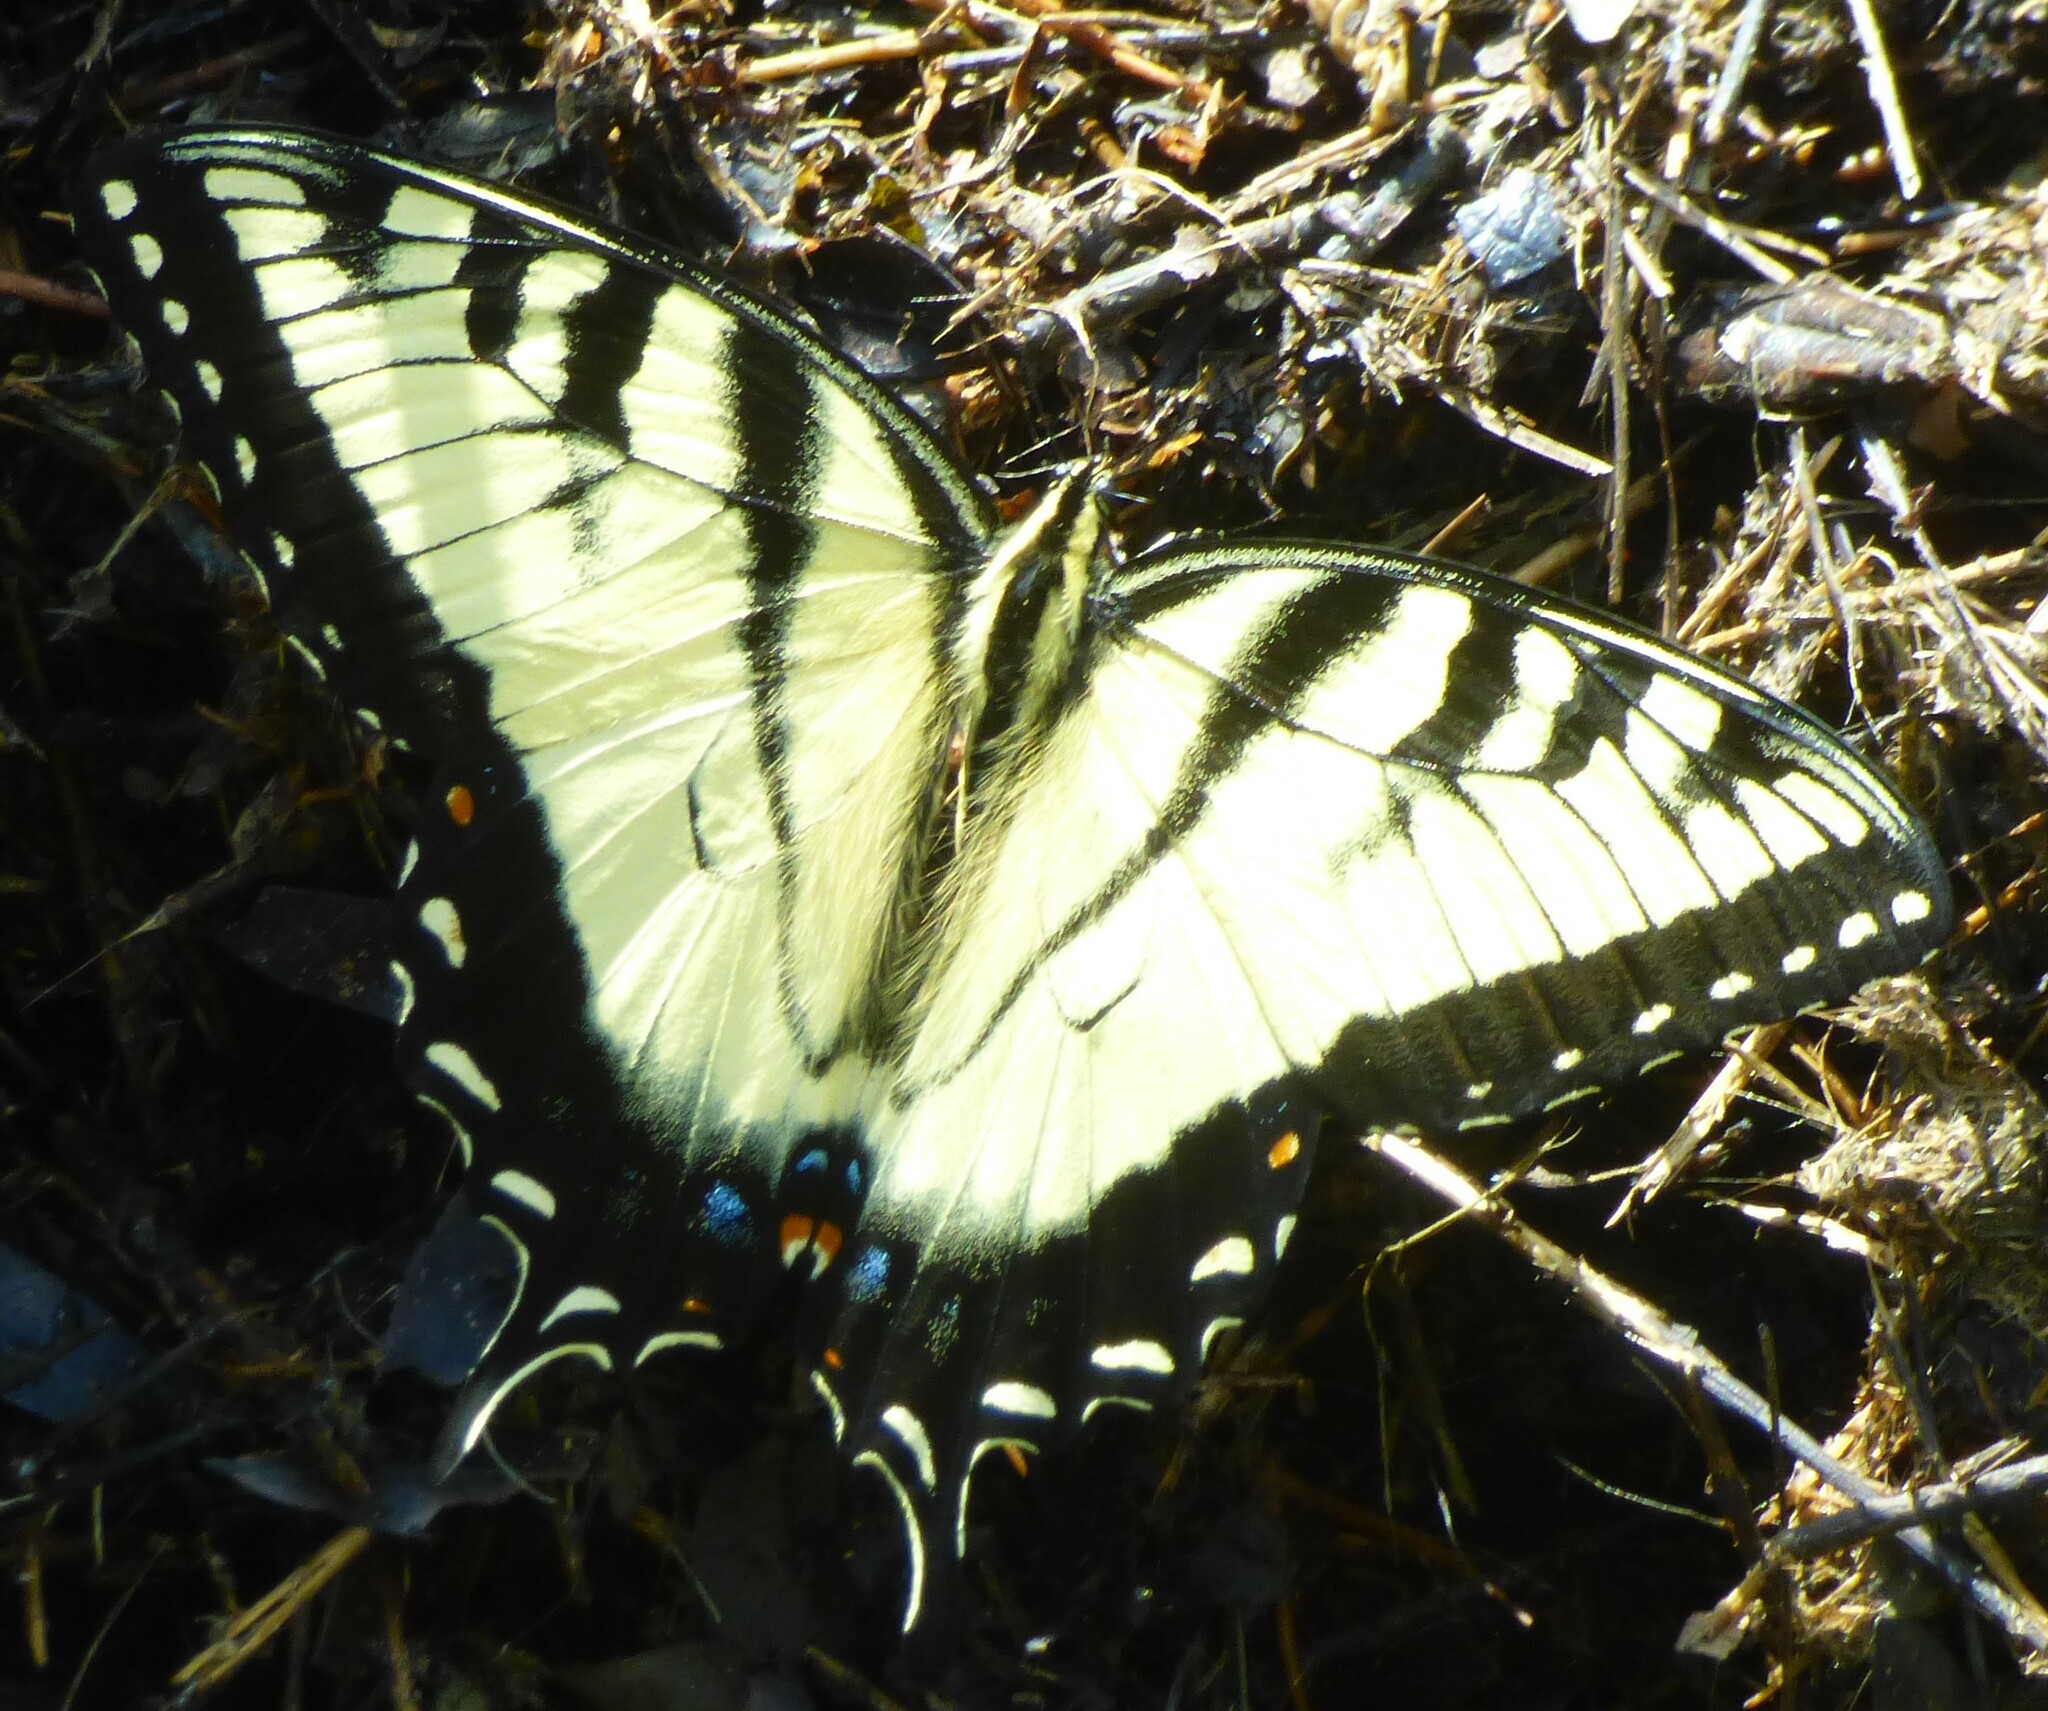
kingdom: Animalia
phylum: Arthropoda
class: Insecta
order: Lepidoptera
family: Papilionidae
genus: Papilio
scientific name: Papilio glaucus
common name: Tiger swallowtail
